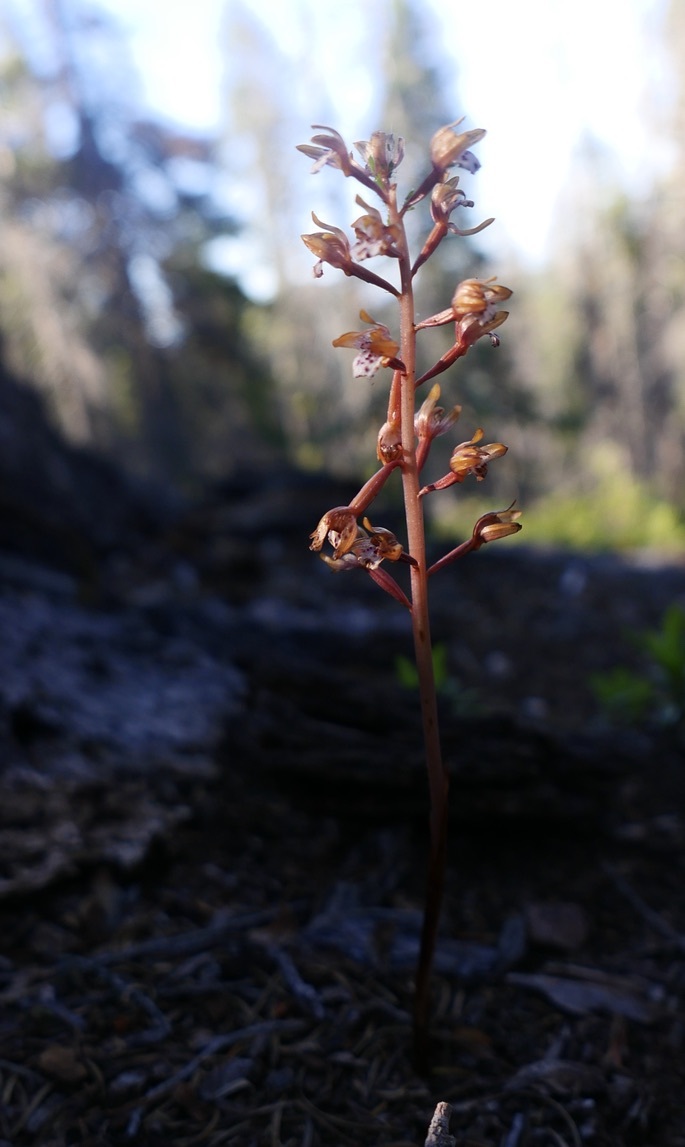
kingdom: Plantae
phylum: Tracheophyta
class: Liliopsida
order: Asparagales
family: Orchidaceae
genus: Corallorhiza
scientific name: Corallorhiza maculata
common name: Spotted coralroot
